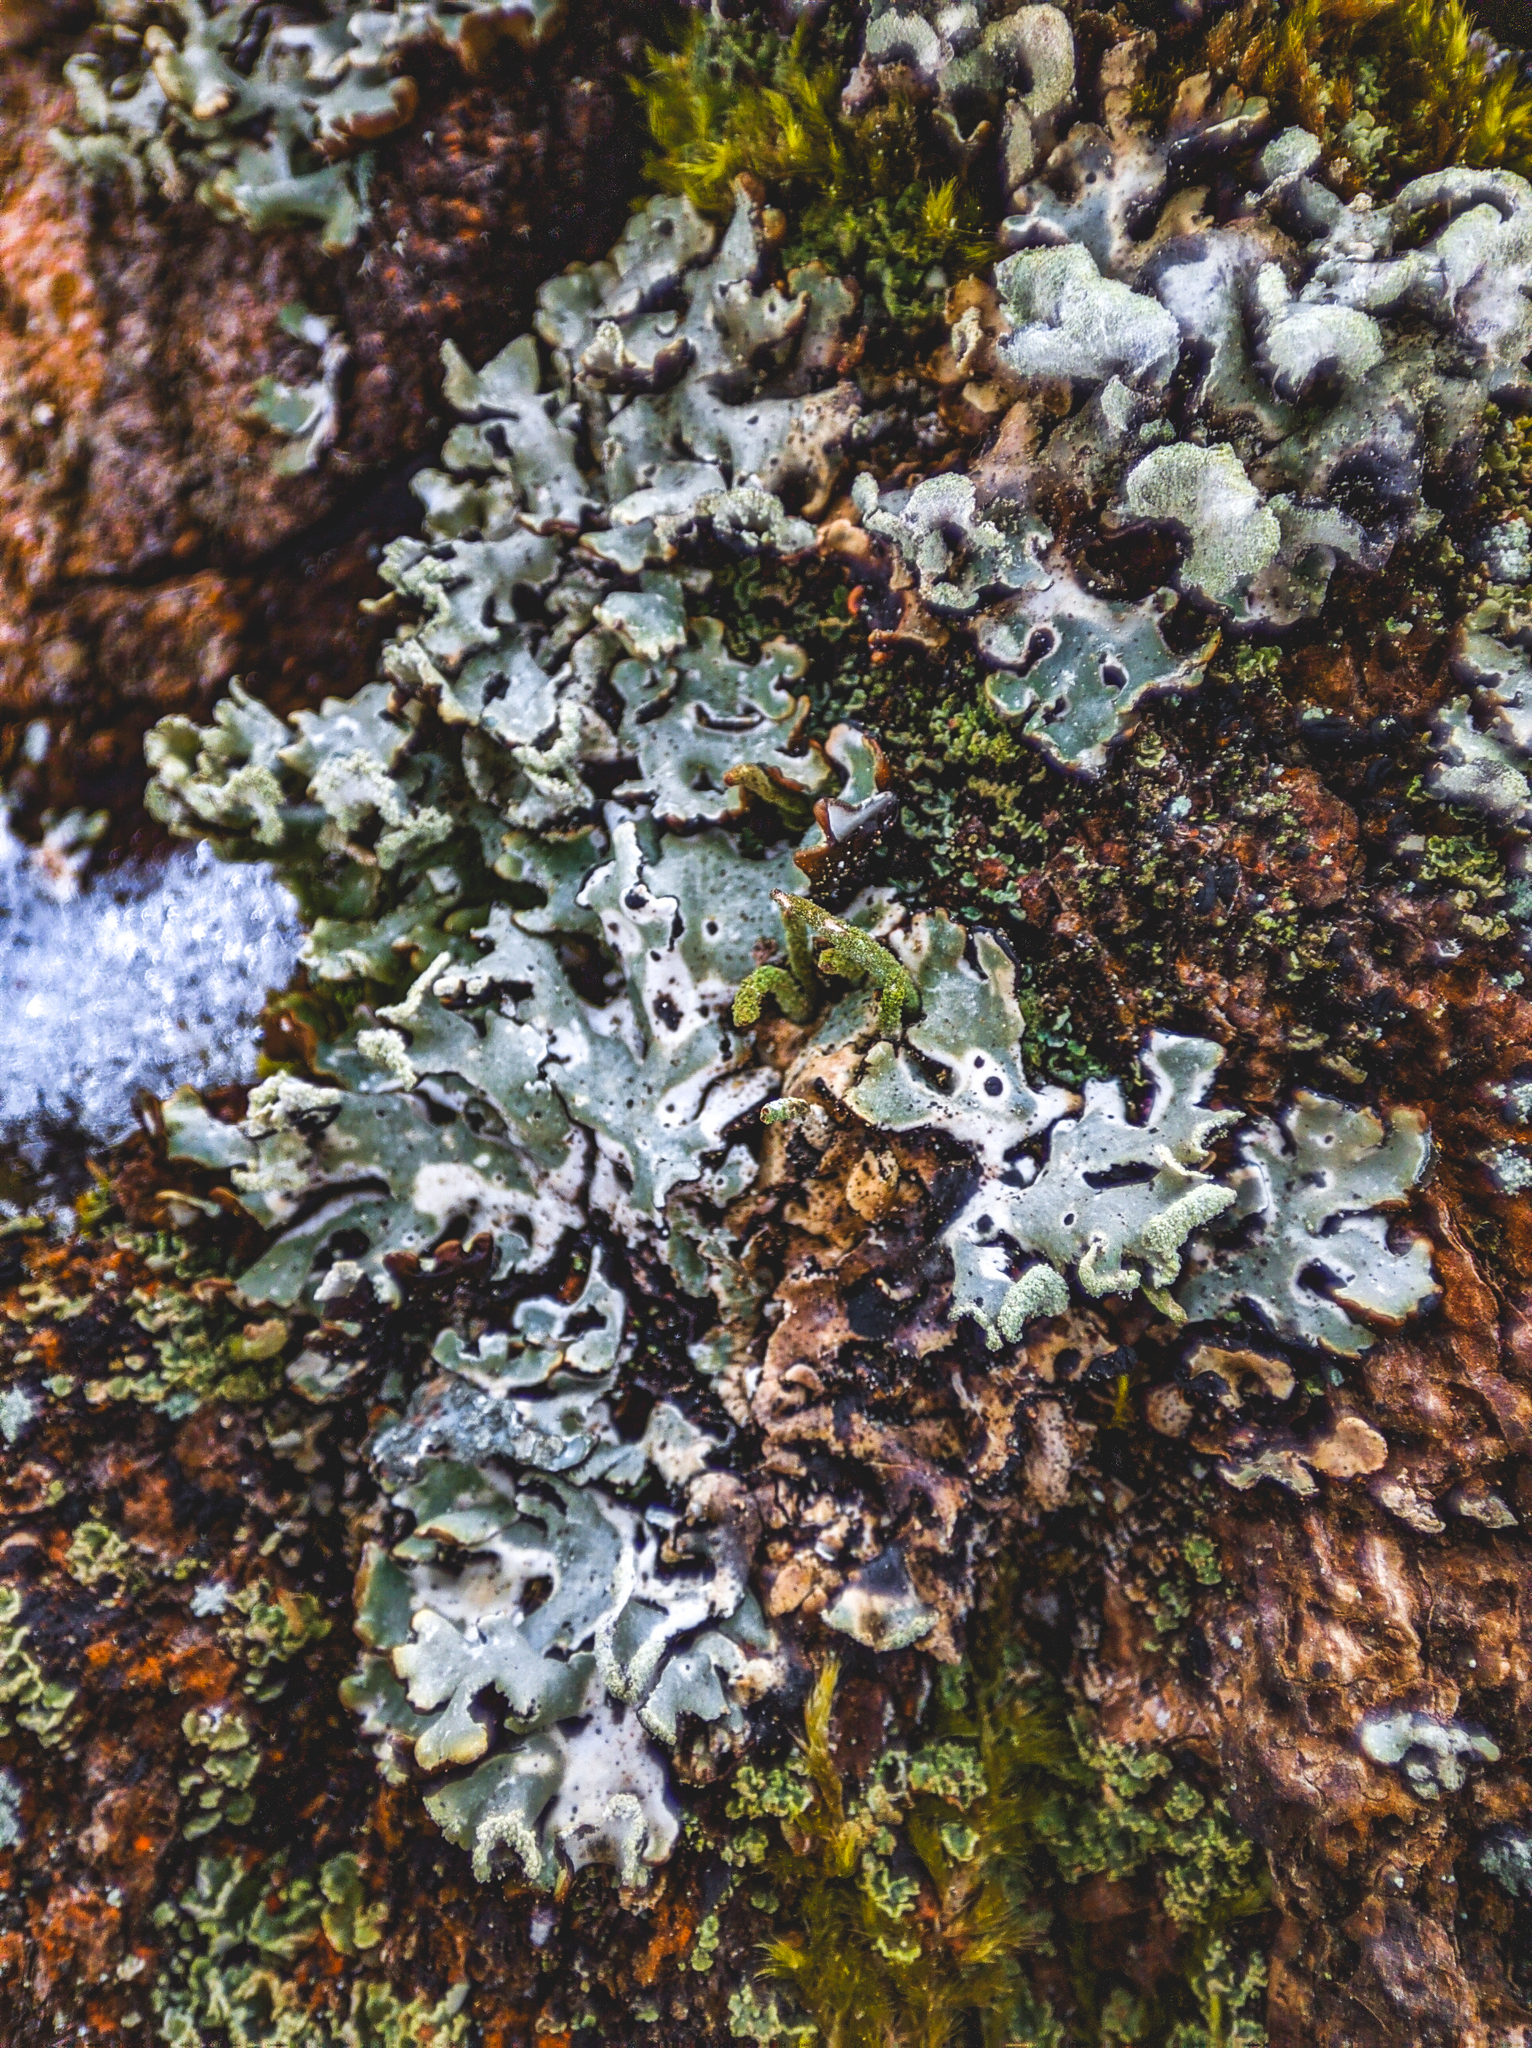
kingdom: Fungi
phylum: Ascomycota
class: Lecanoromycetes
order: Lecanorales
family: Parmeliaceae
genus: Hypogymnia
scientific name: Hypogymnia physodes
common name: Dark crottle
